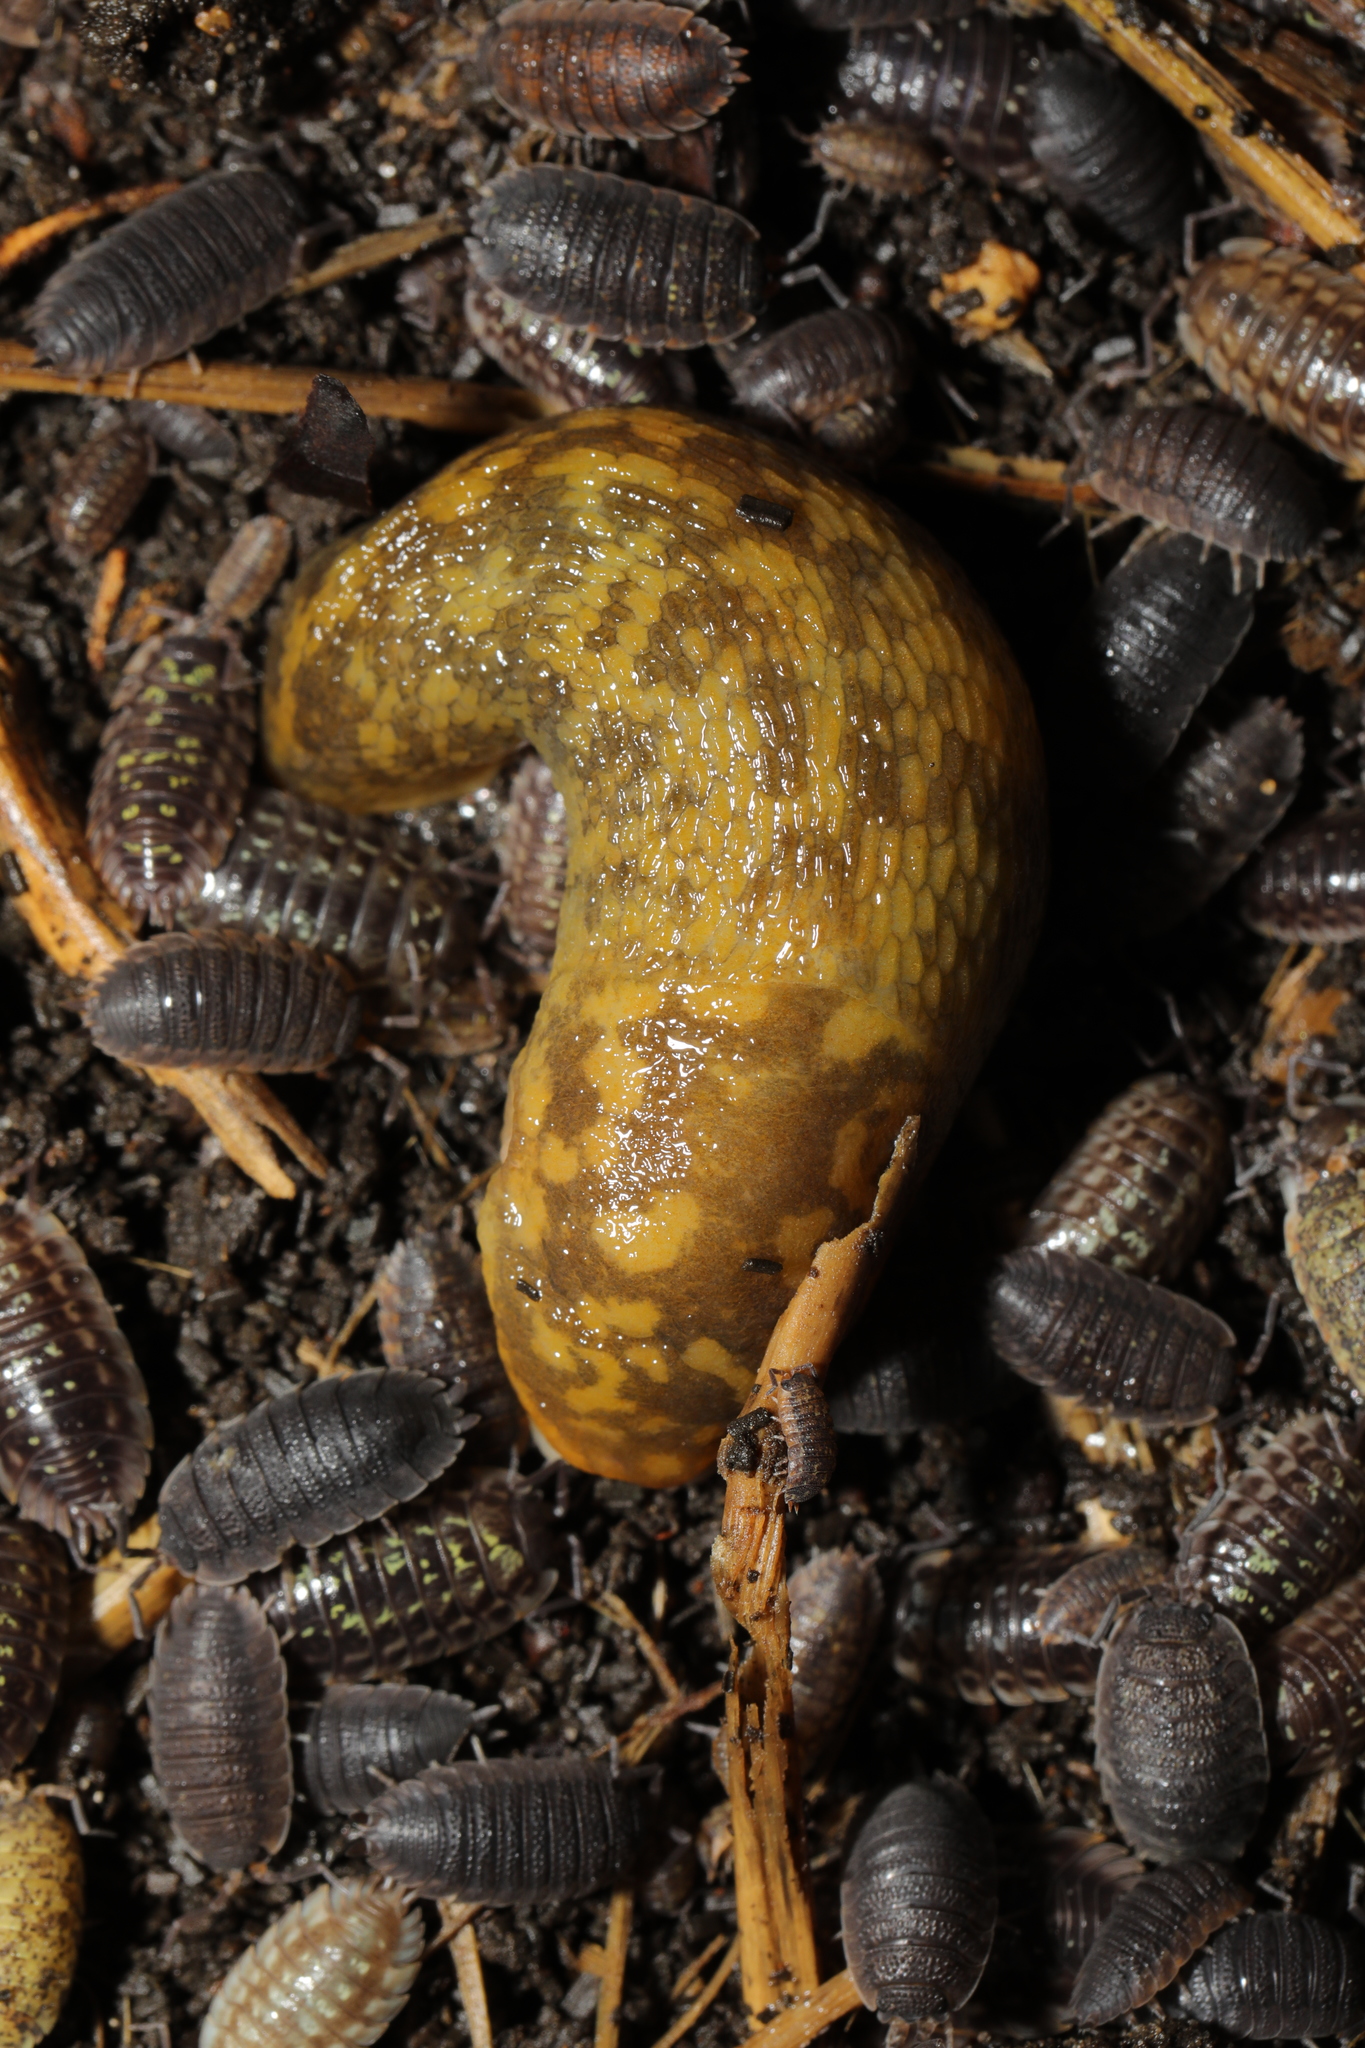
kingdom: Animalia
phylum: Mollusca
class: Gastropoda
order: Stylommatophora
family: Limacidae
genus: Limacus
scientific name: Limacus maculatus
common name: Irish yellow slug
